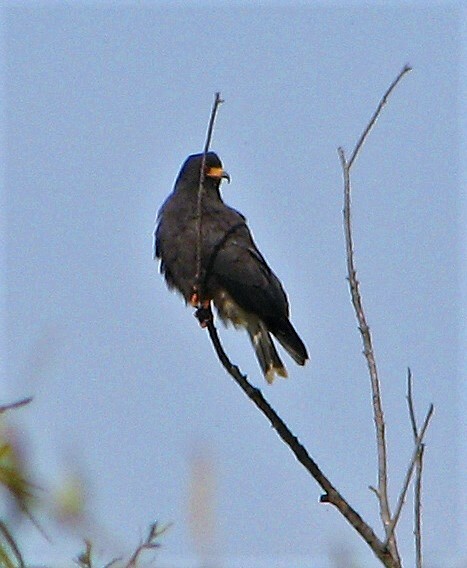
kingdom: Animalia
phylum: Chordata
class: Aves
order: Accipitriformes
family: Accipitridae
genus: Rostrhamus
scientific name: Rostrhamus sociabilis
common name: Snail kite
